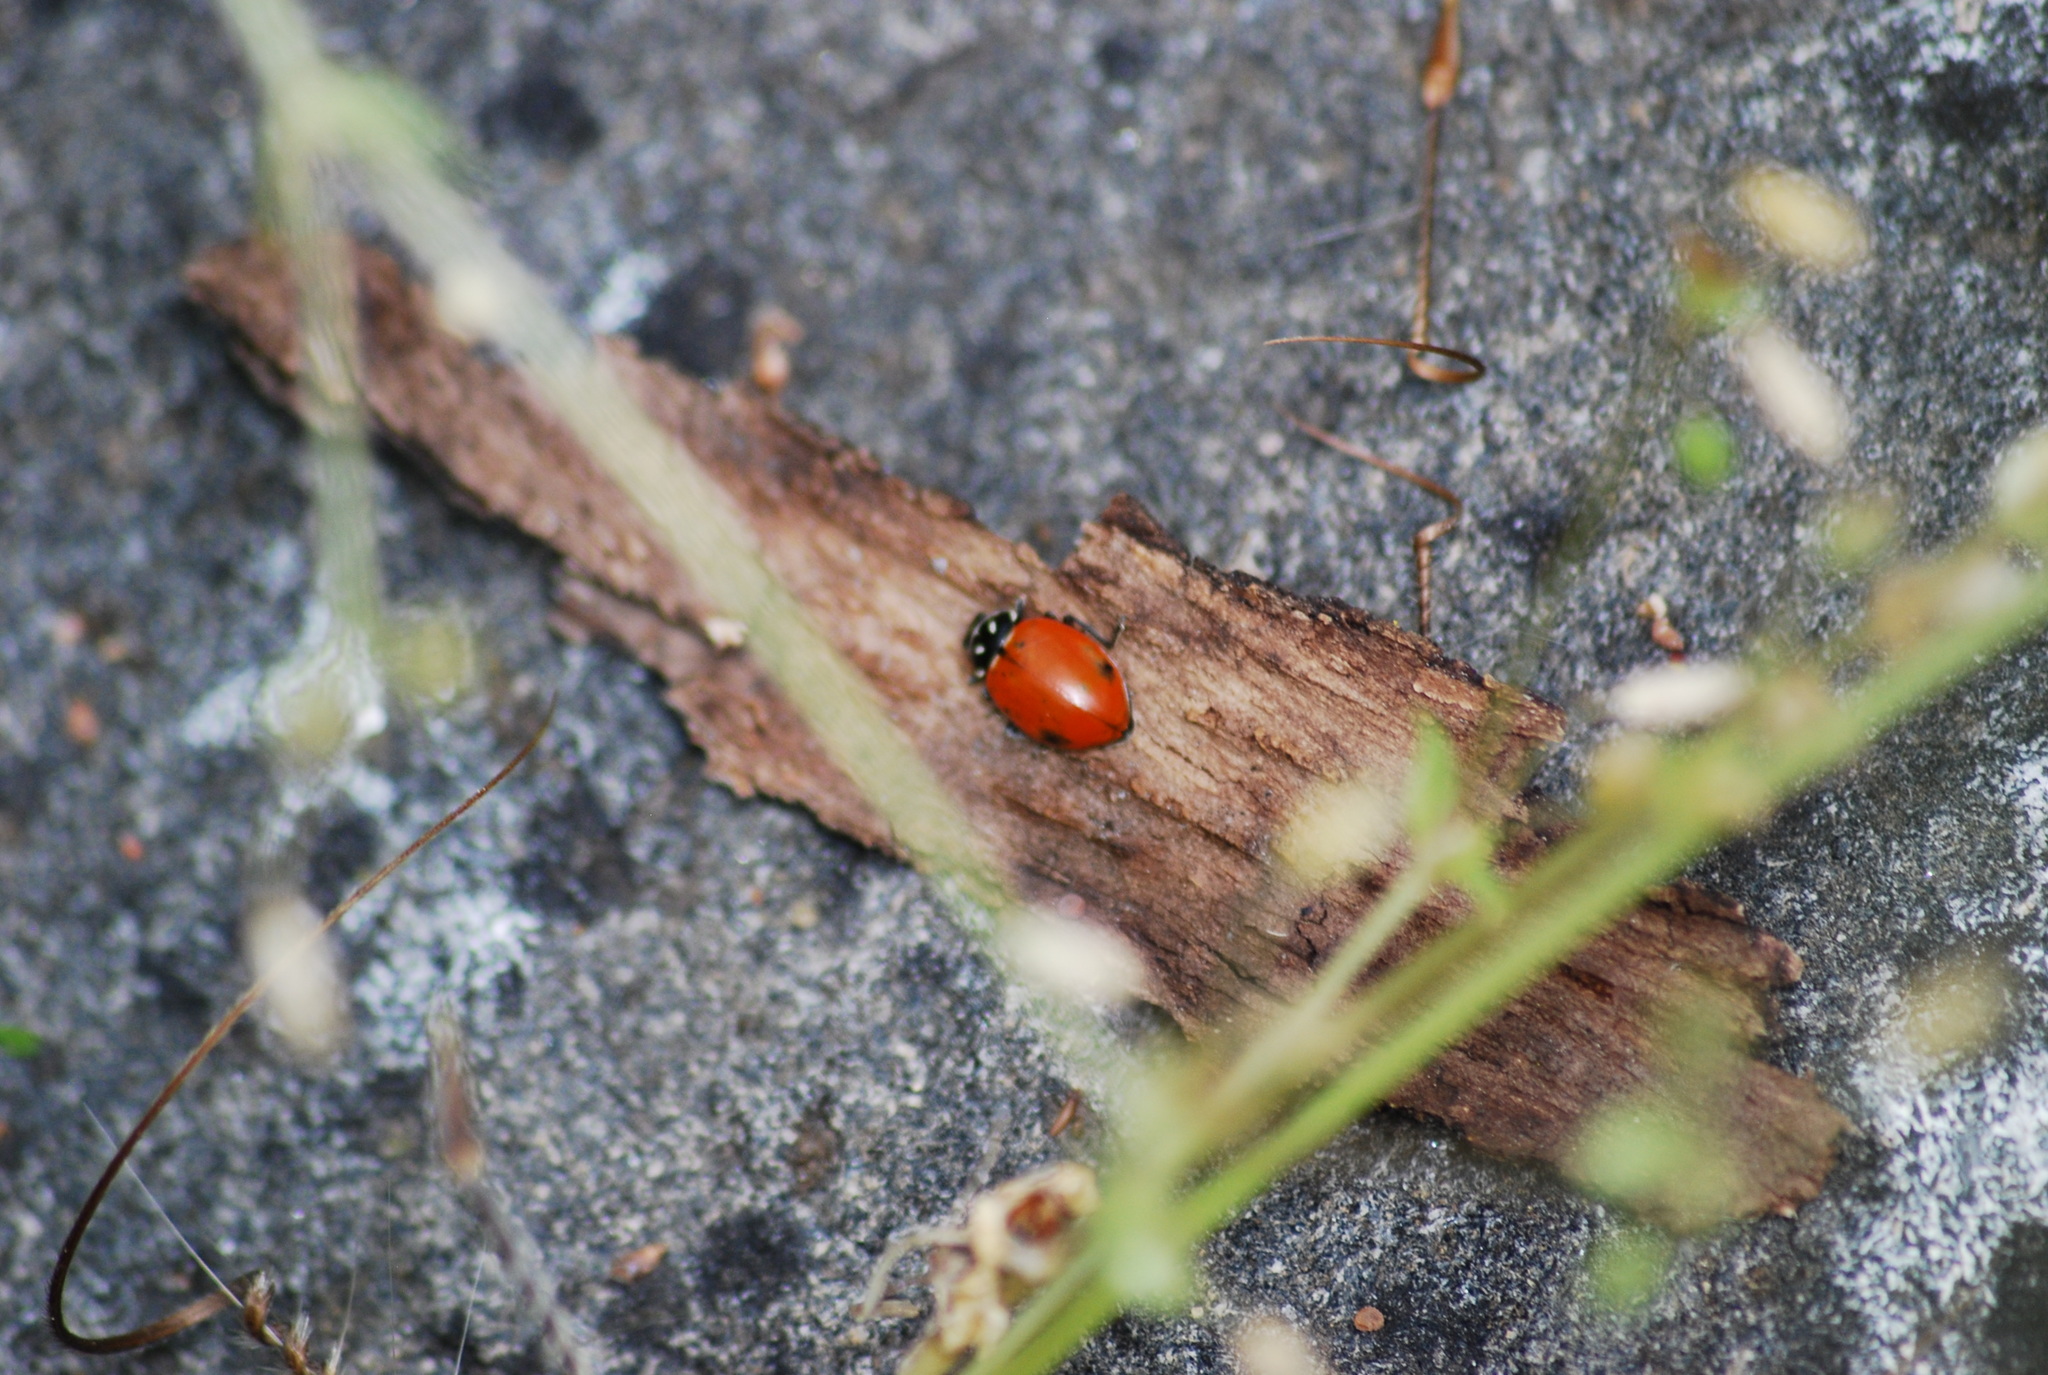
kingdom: Animalia
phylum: Arthropoda
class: Insecta
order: Coleoptera
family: Coccinellidae
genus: Hippodamia
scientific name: Hippodamia convergens
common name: Convergent lady beetle
